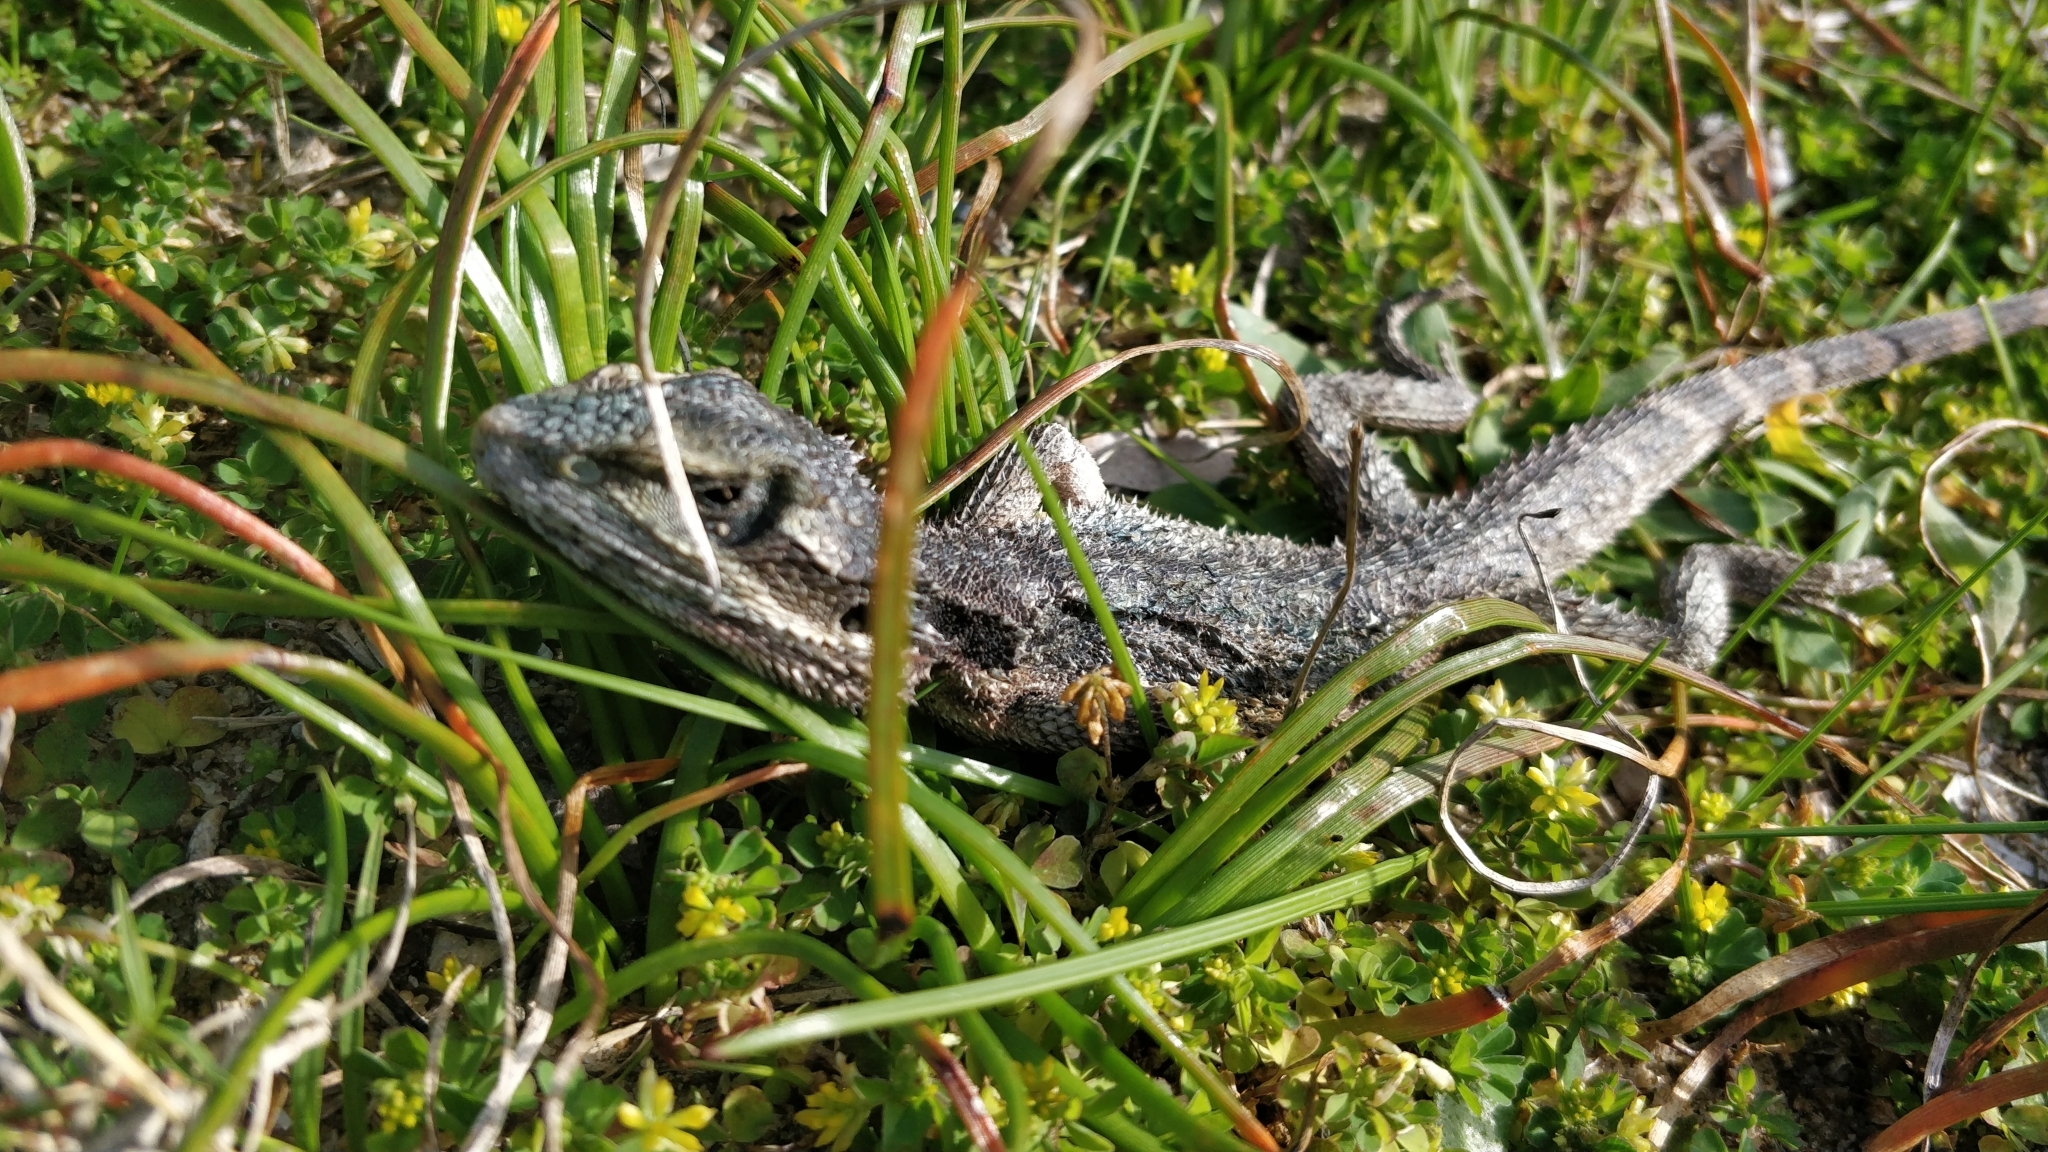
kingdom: Animalia
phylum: Chordata
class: Squamata
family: Agamidae
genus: Pogona
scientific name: Pogona minor
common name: Dwarf bearded dragon
